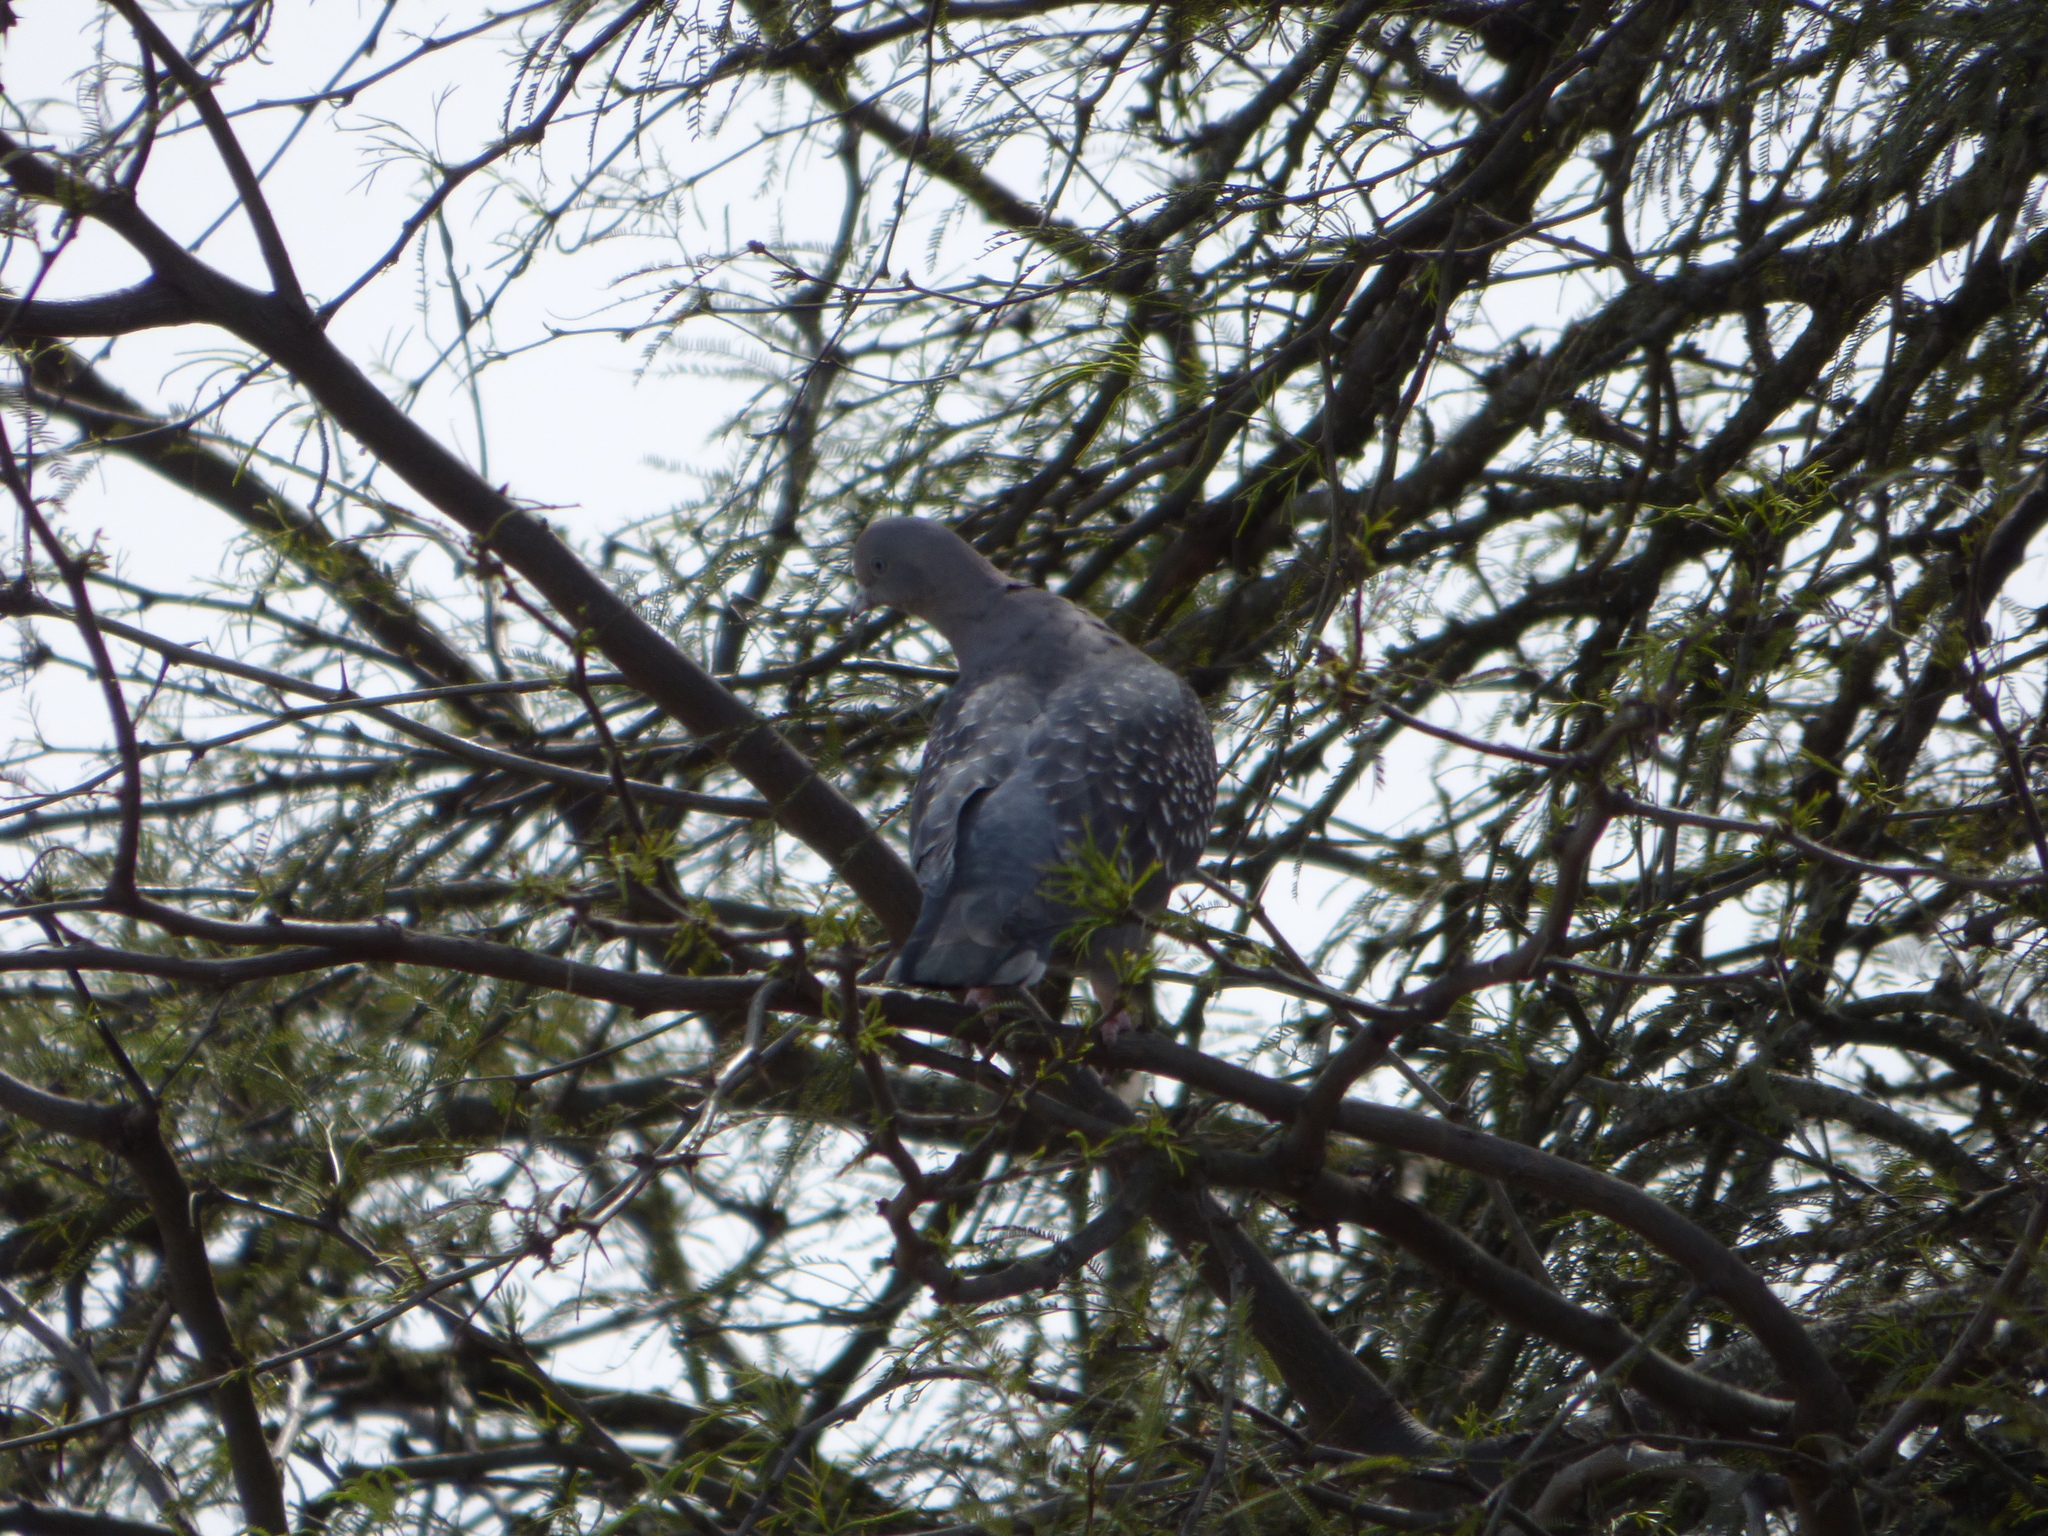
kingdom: Animalia
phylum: Chordata
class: Aves
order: Columbiformes
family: Columbidae
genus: Patagioenas
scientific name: Patagioenas maculosa
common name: Spot-winged pigeon
